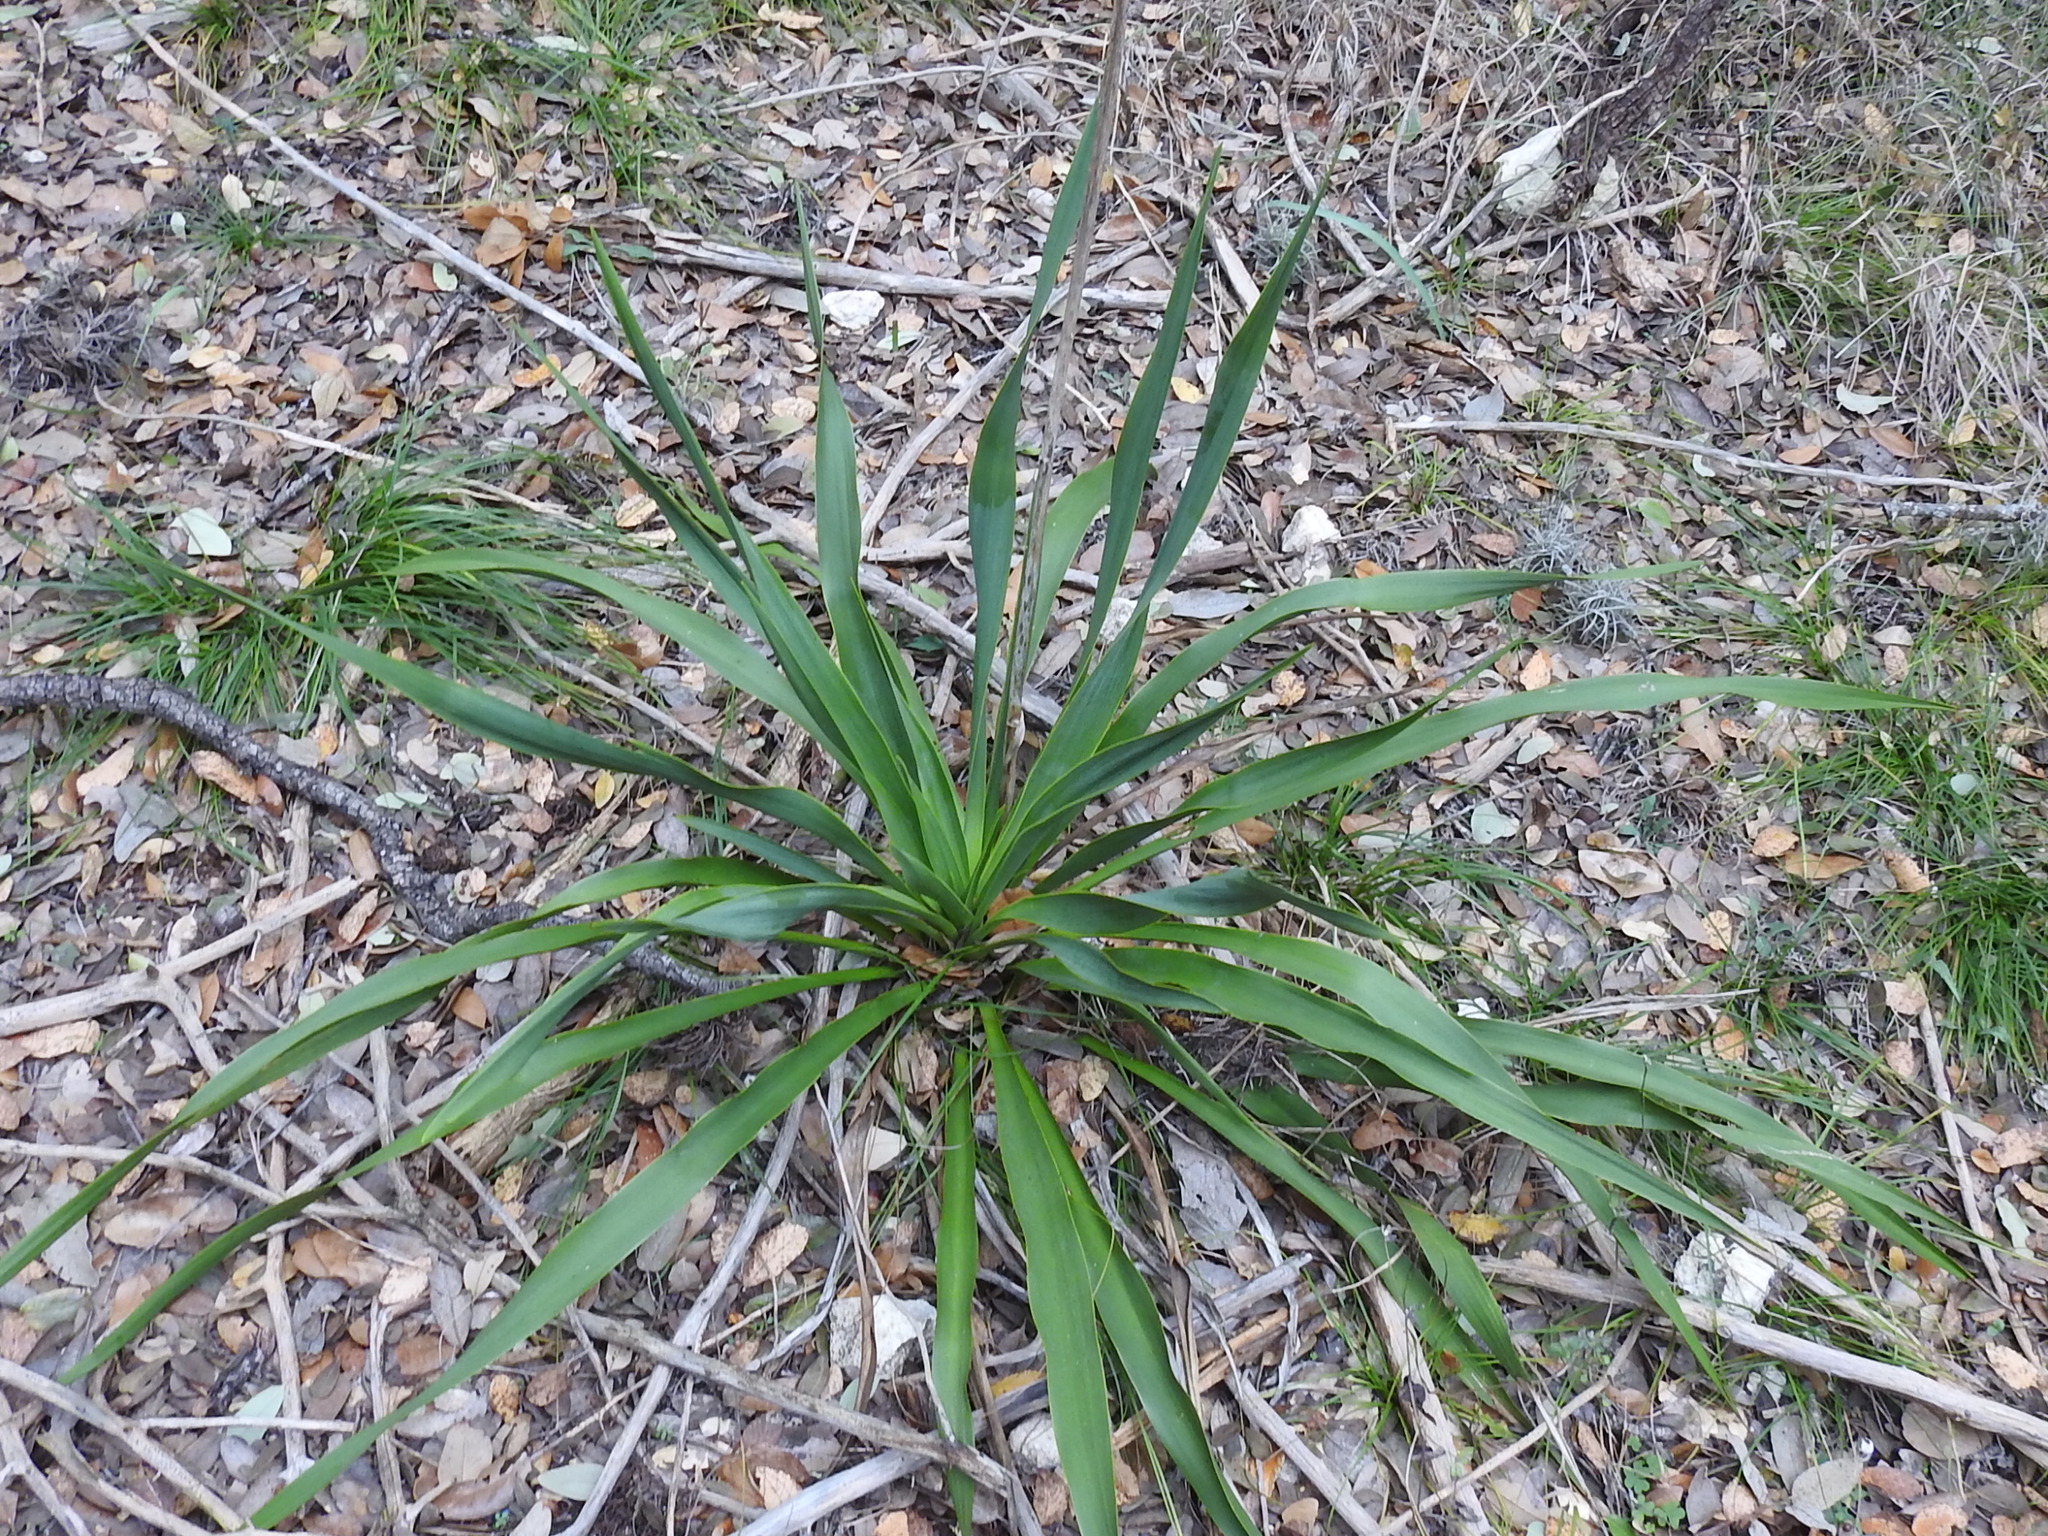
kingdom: Plantae
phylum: Tracheophyta
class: Liliopsida
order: Asparagales
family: Asparagaceae
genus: Yucca
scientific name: Yucca rupicola
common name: Twisted-leaf spanish-dagger
